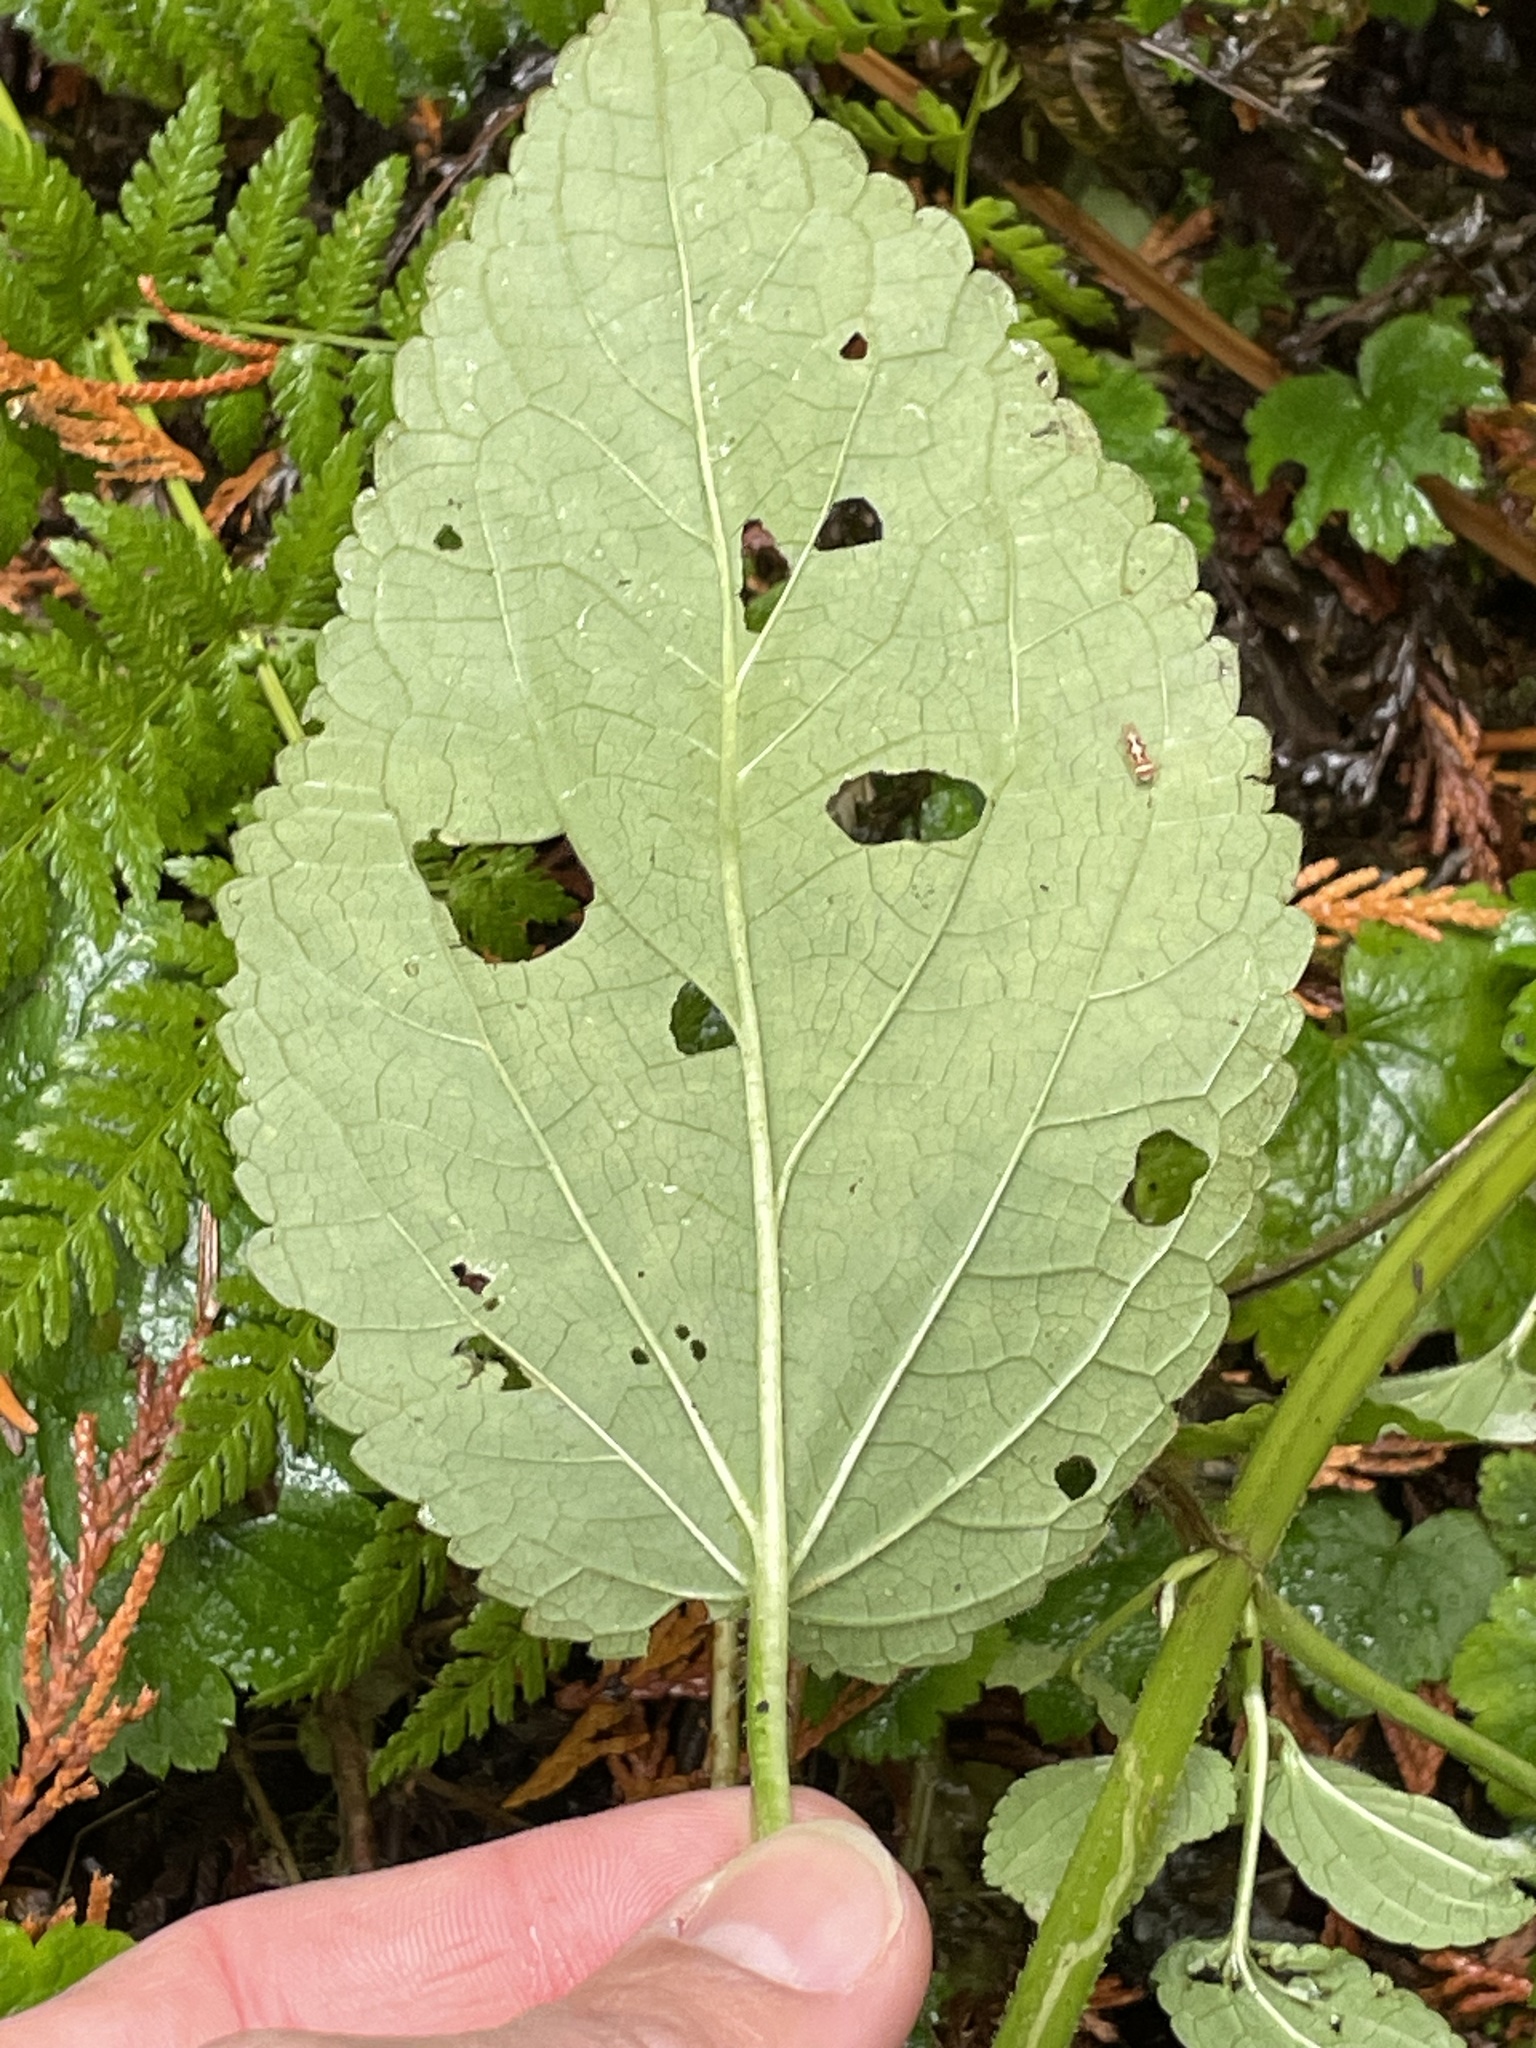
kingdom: Plantae
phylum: Tracheophyta
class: Magnoliopsida
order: Lamiales
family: Lamiaceae
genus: Stachys
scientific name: Stachys chamissonis
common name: Coastal hedge-nettle
